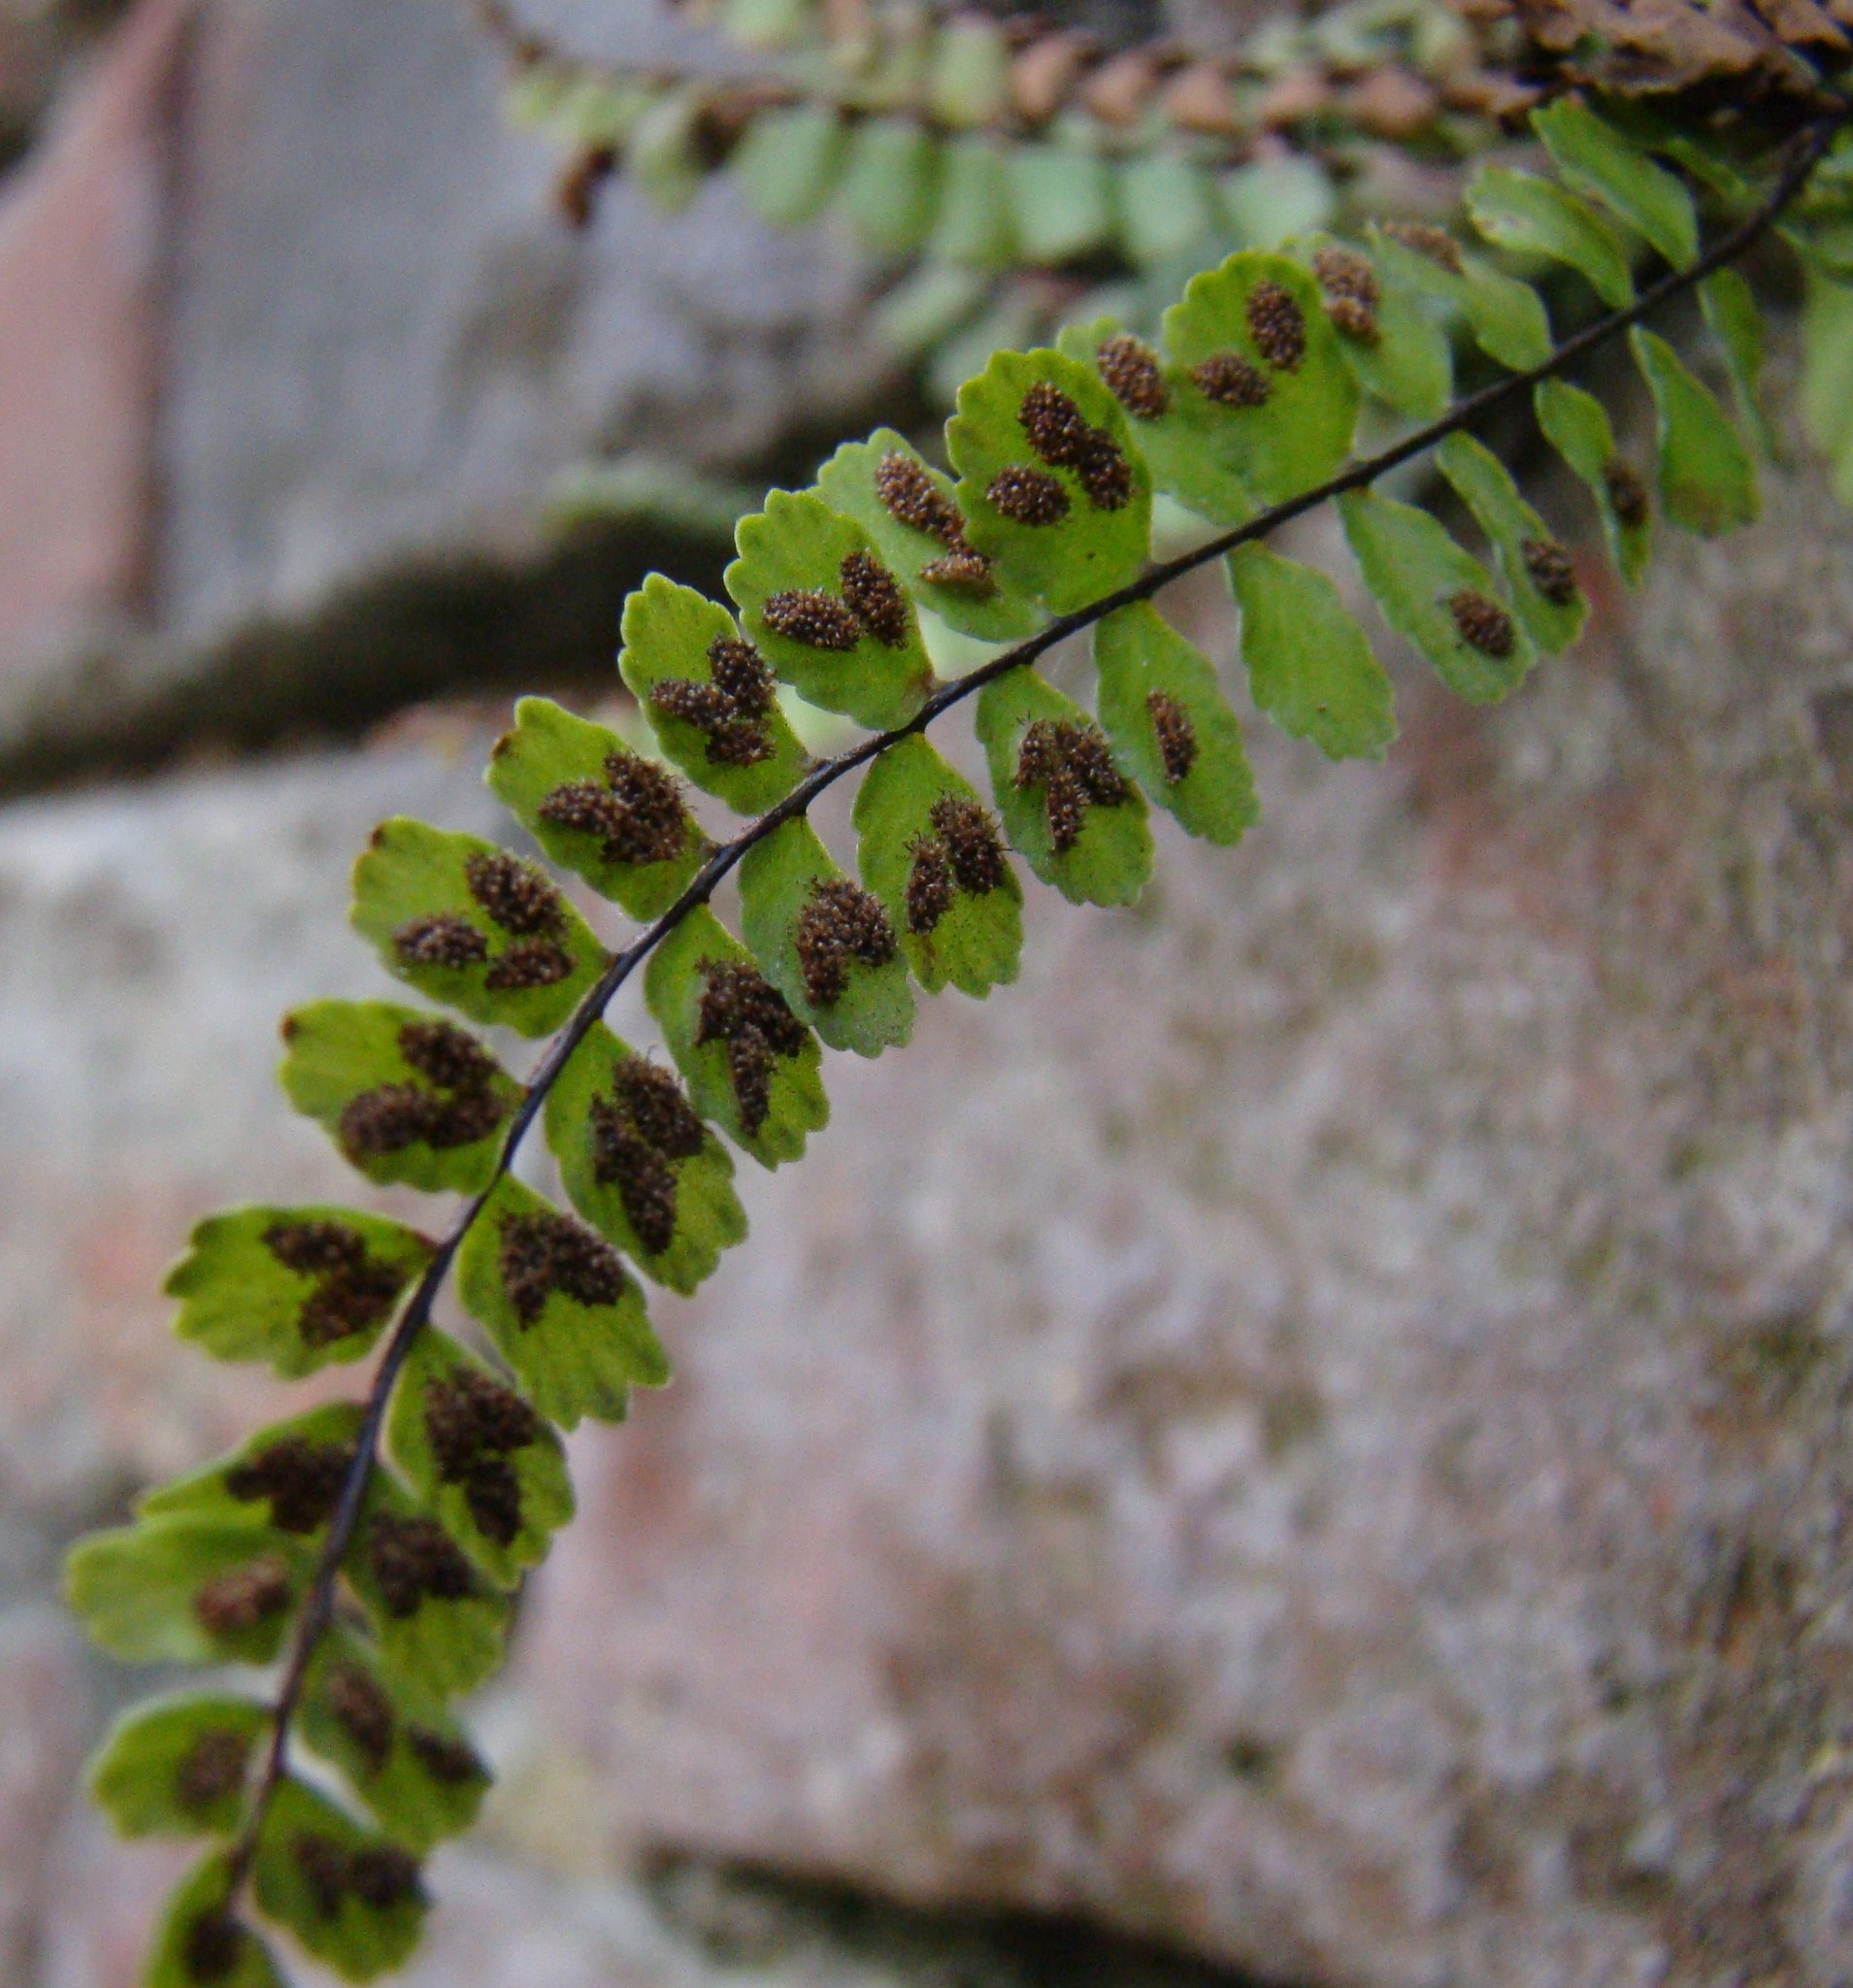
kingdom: Plantae
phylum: Tracheophyta
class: Polypodiopsida
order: Polypodiales
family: Aspleniaceae
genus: Asplenium
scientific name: Asplenium trichomanes
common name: Maidenhair spleenwort
